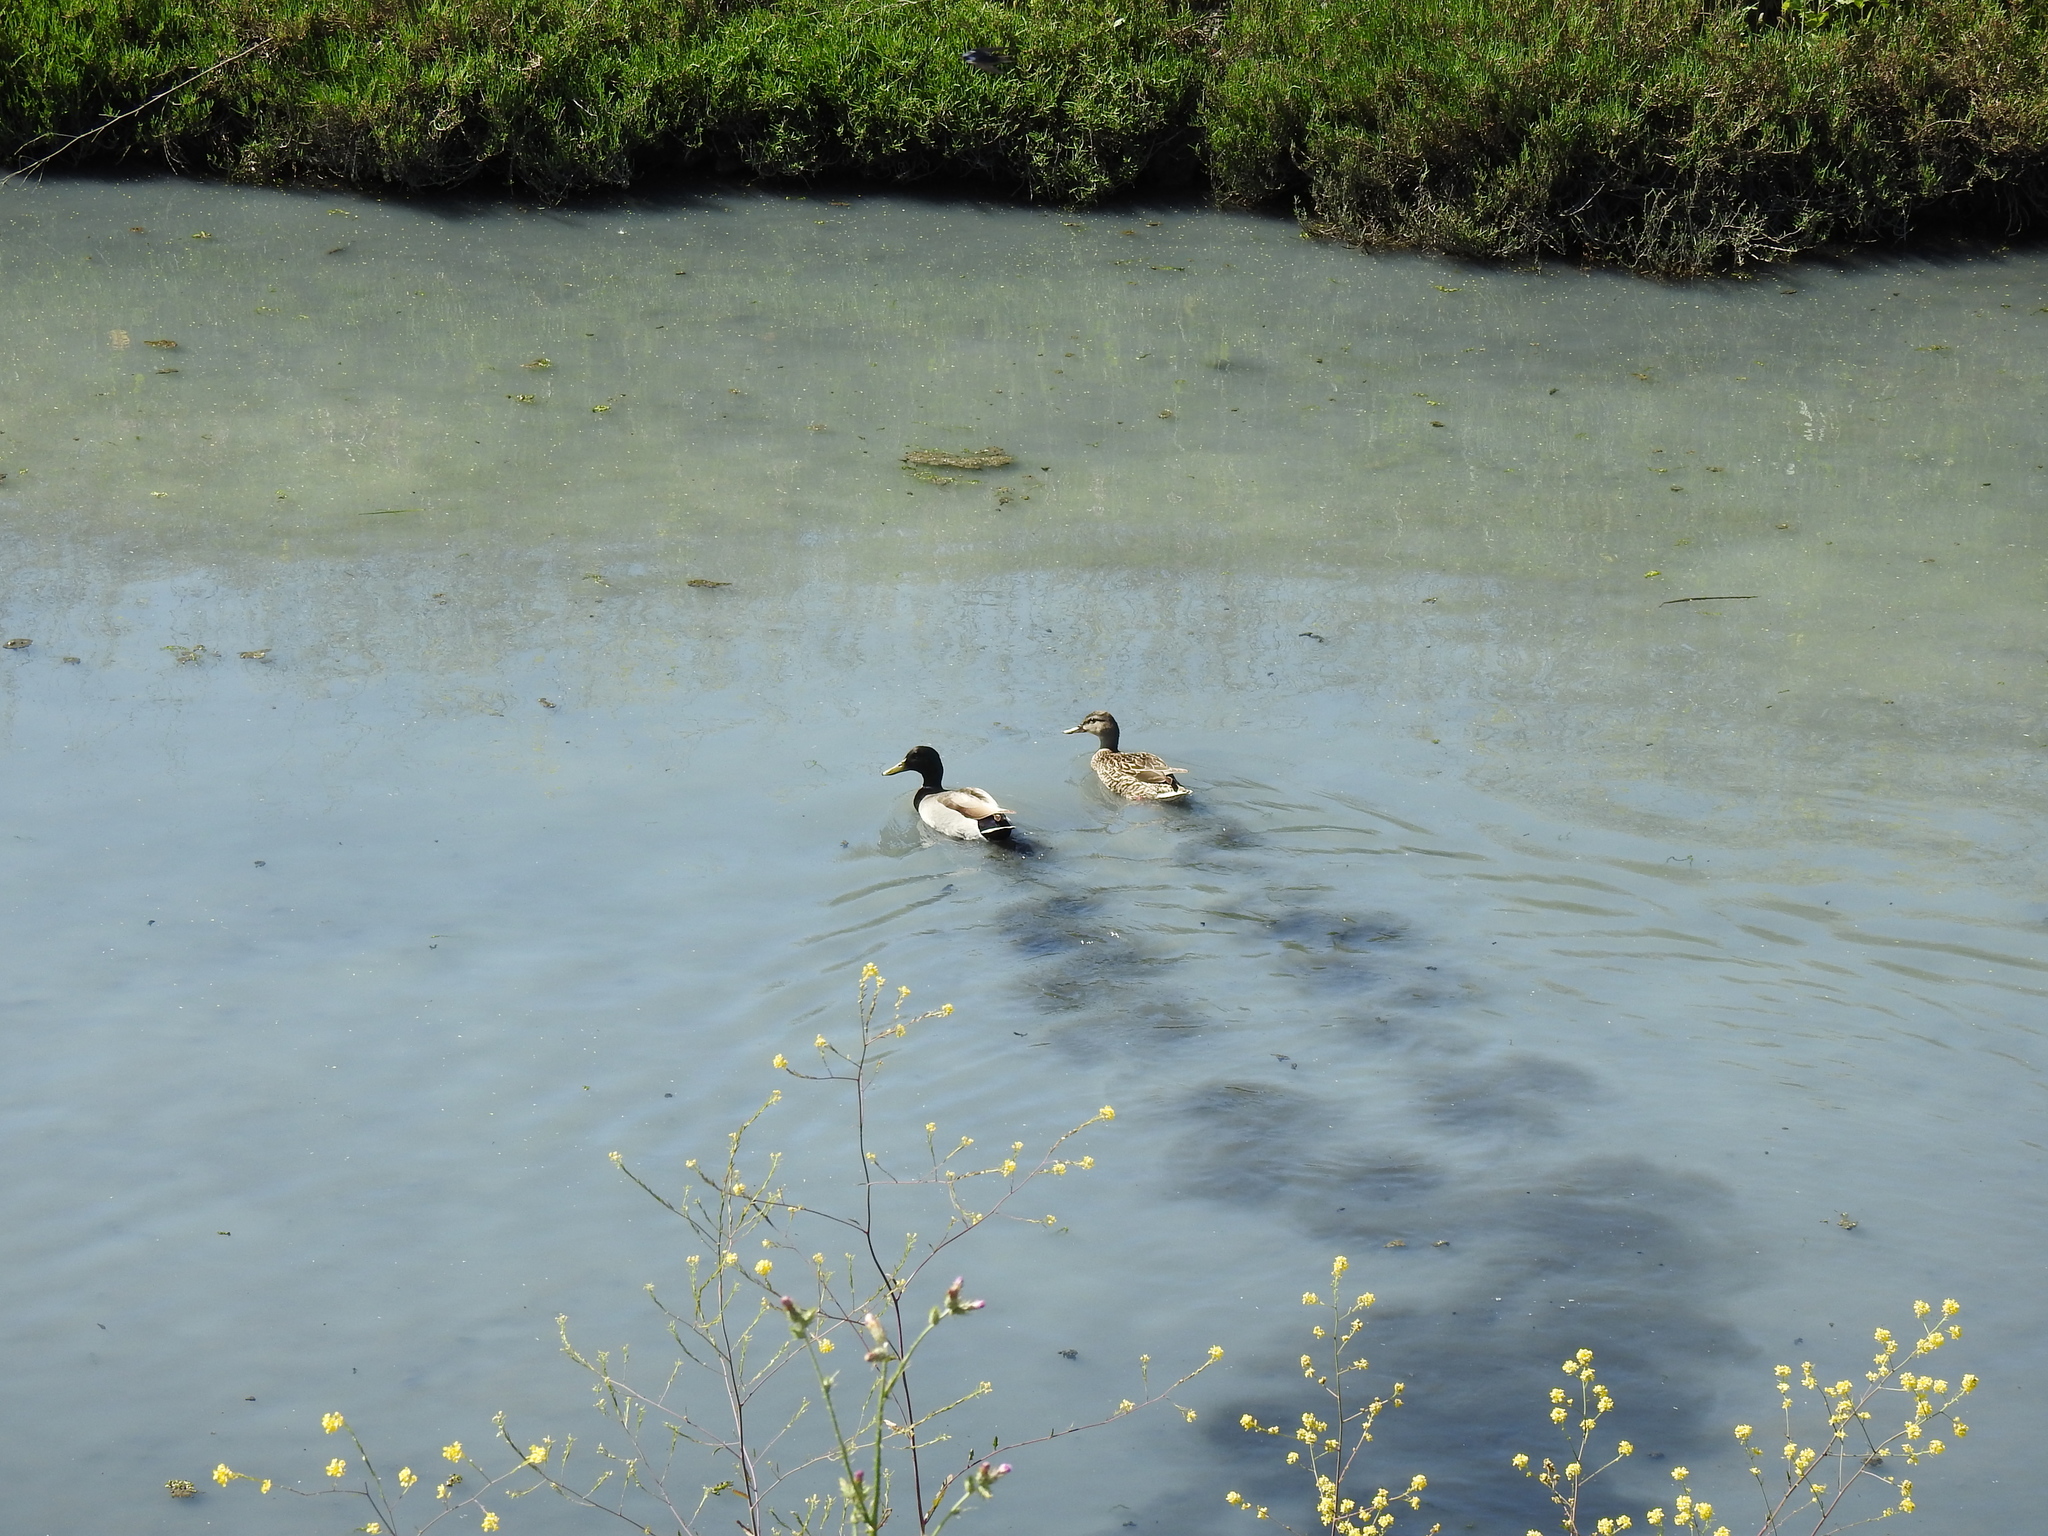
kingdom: Animalia
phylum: Chordata
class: Aves
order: Anseriformes
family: Anatidae
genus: Anas
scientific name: Anas platyrhynchos
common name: Mallard
